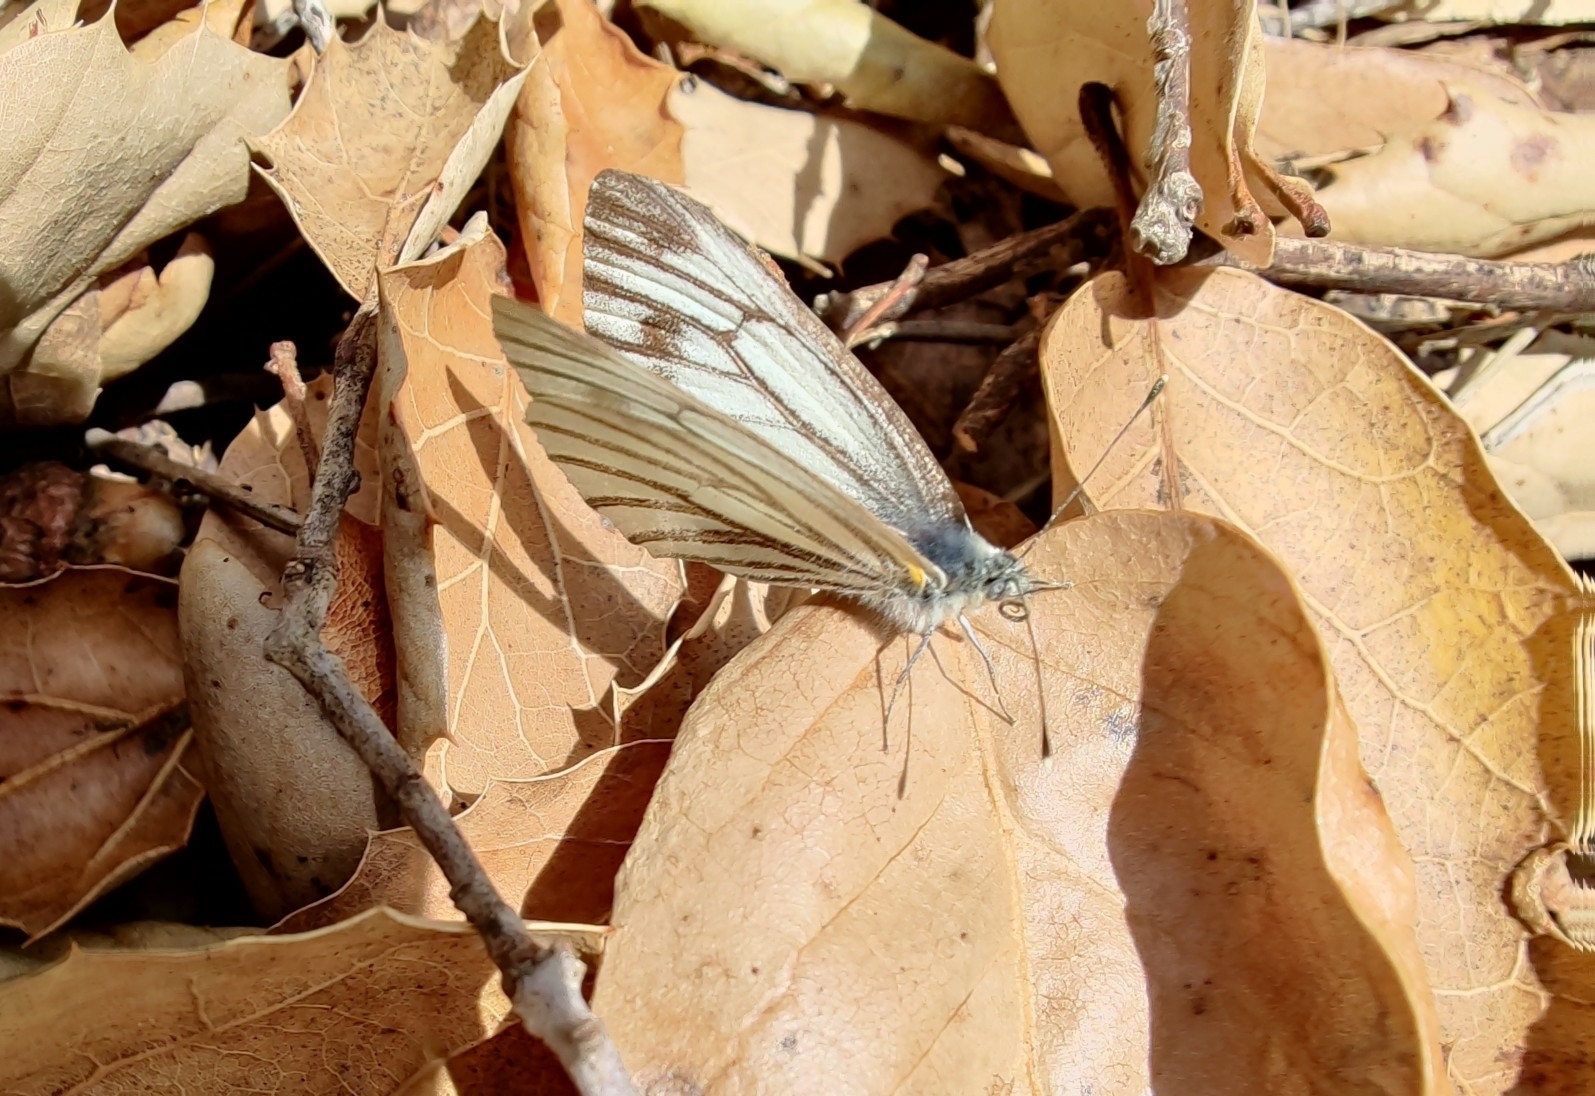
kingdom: Animalia
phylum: Arthropoda
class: Insecta
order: Lepidoptera
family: Pieridae
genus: Pieris
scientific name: Pieris marginalis
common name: Margined white
